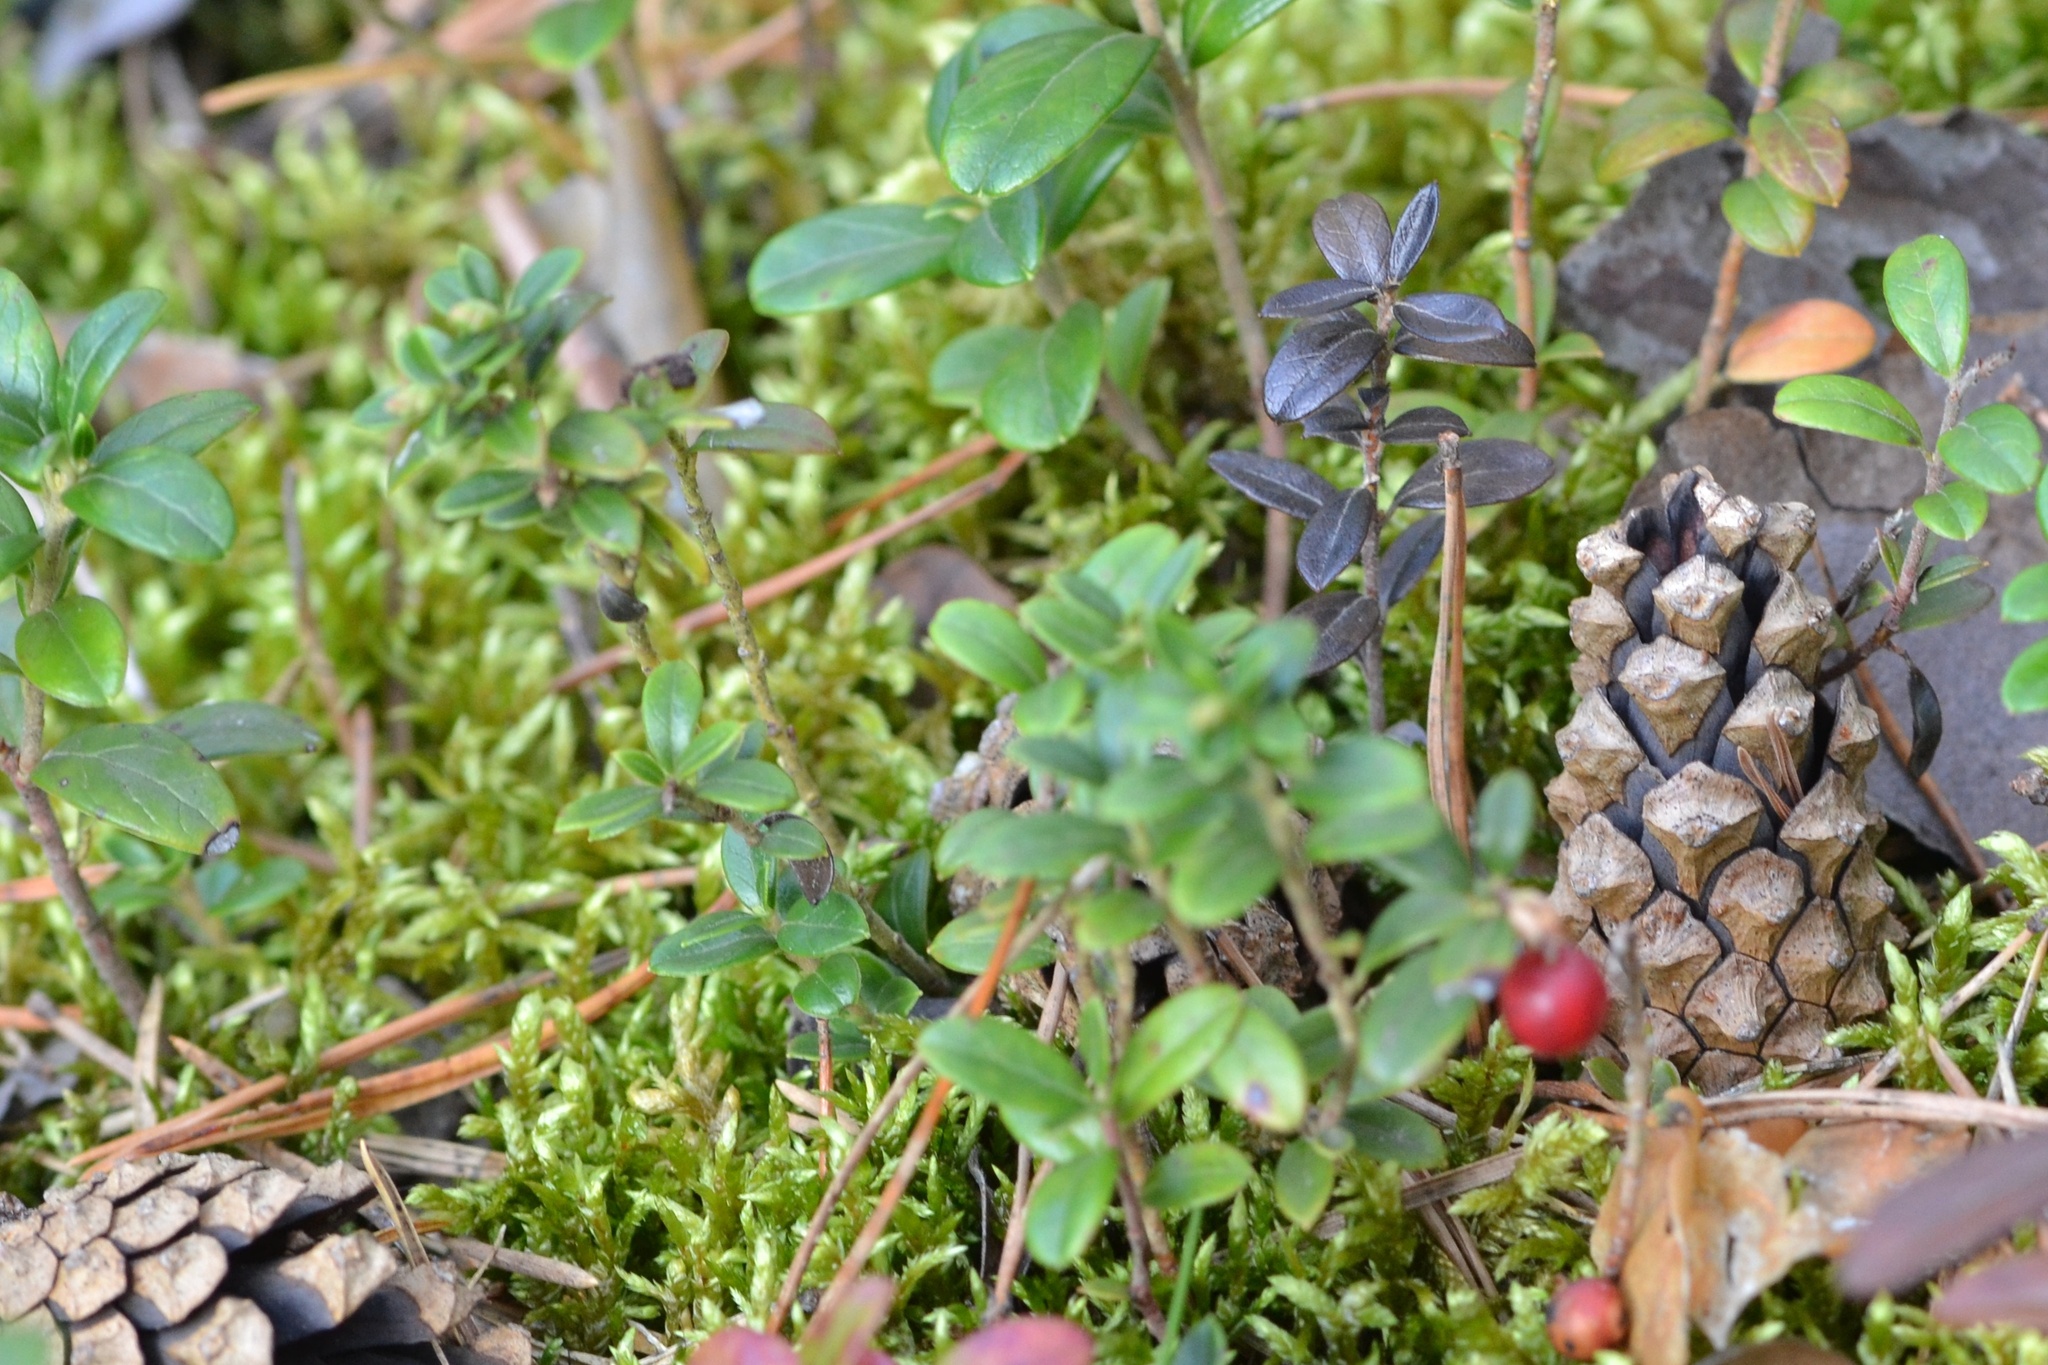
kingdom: Plantae
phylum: Tracheophyta
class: Magnoliopsida
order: Ericales
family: Ericaceae
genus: Vaccinium
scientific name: Vaccinium vitis-idaea
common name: Cowberry
